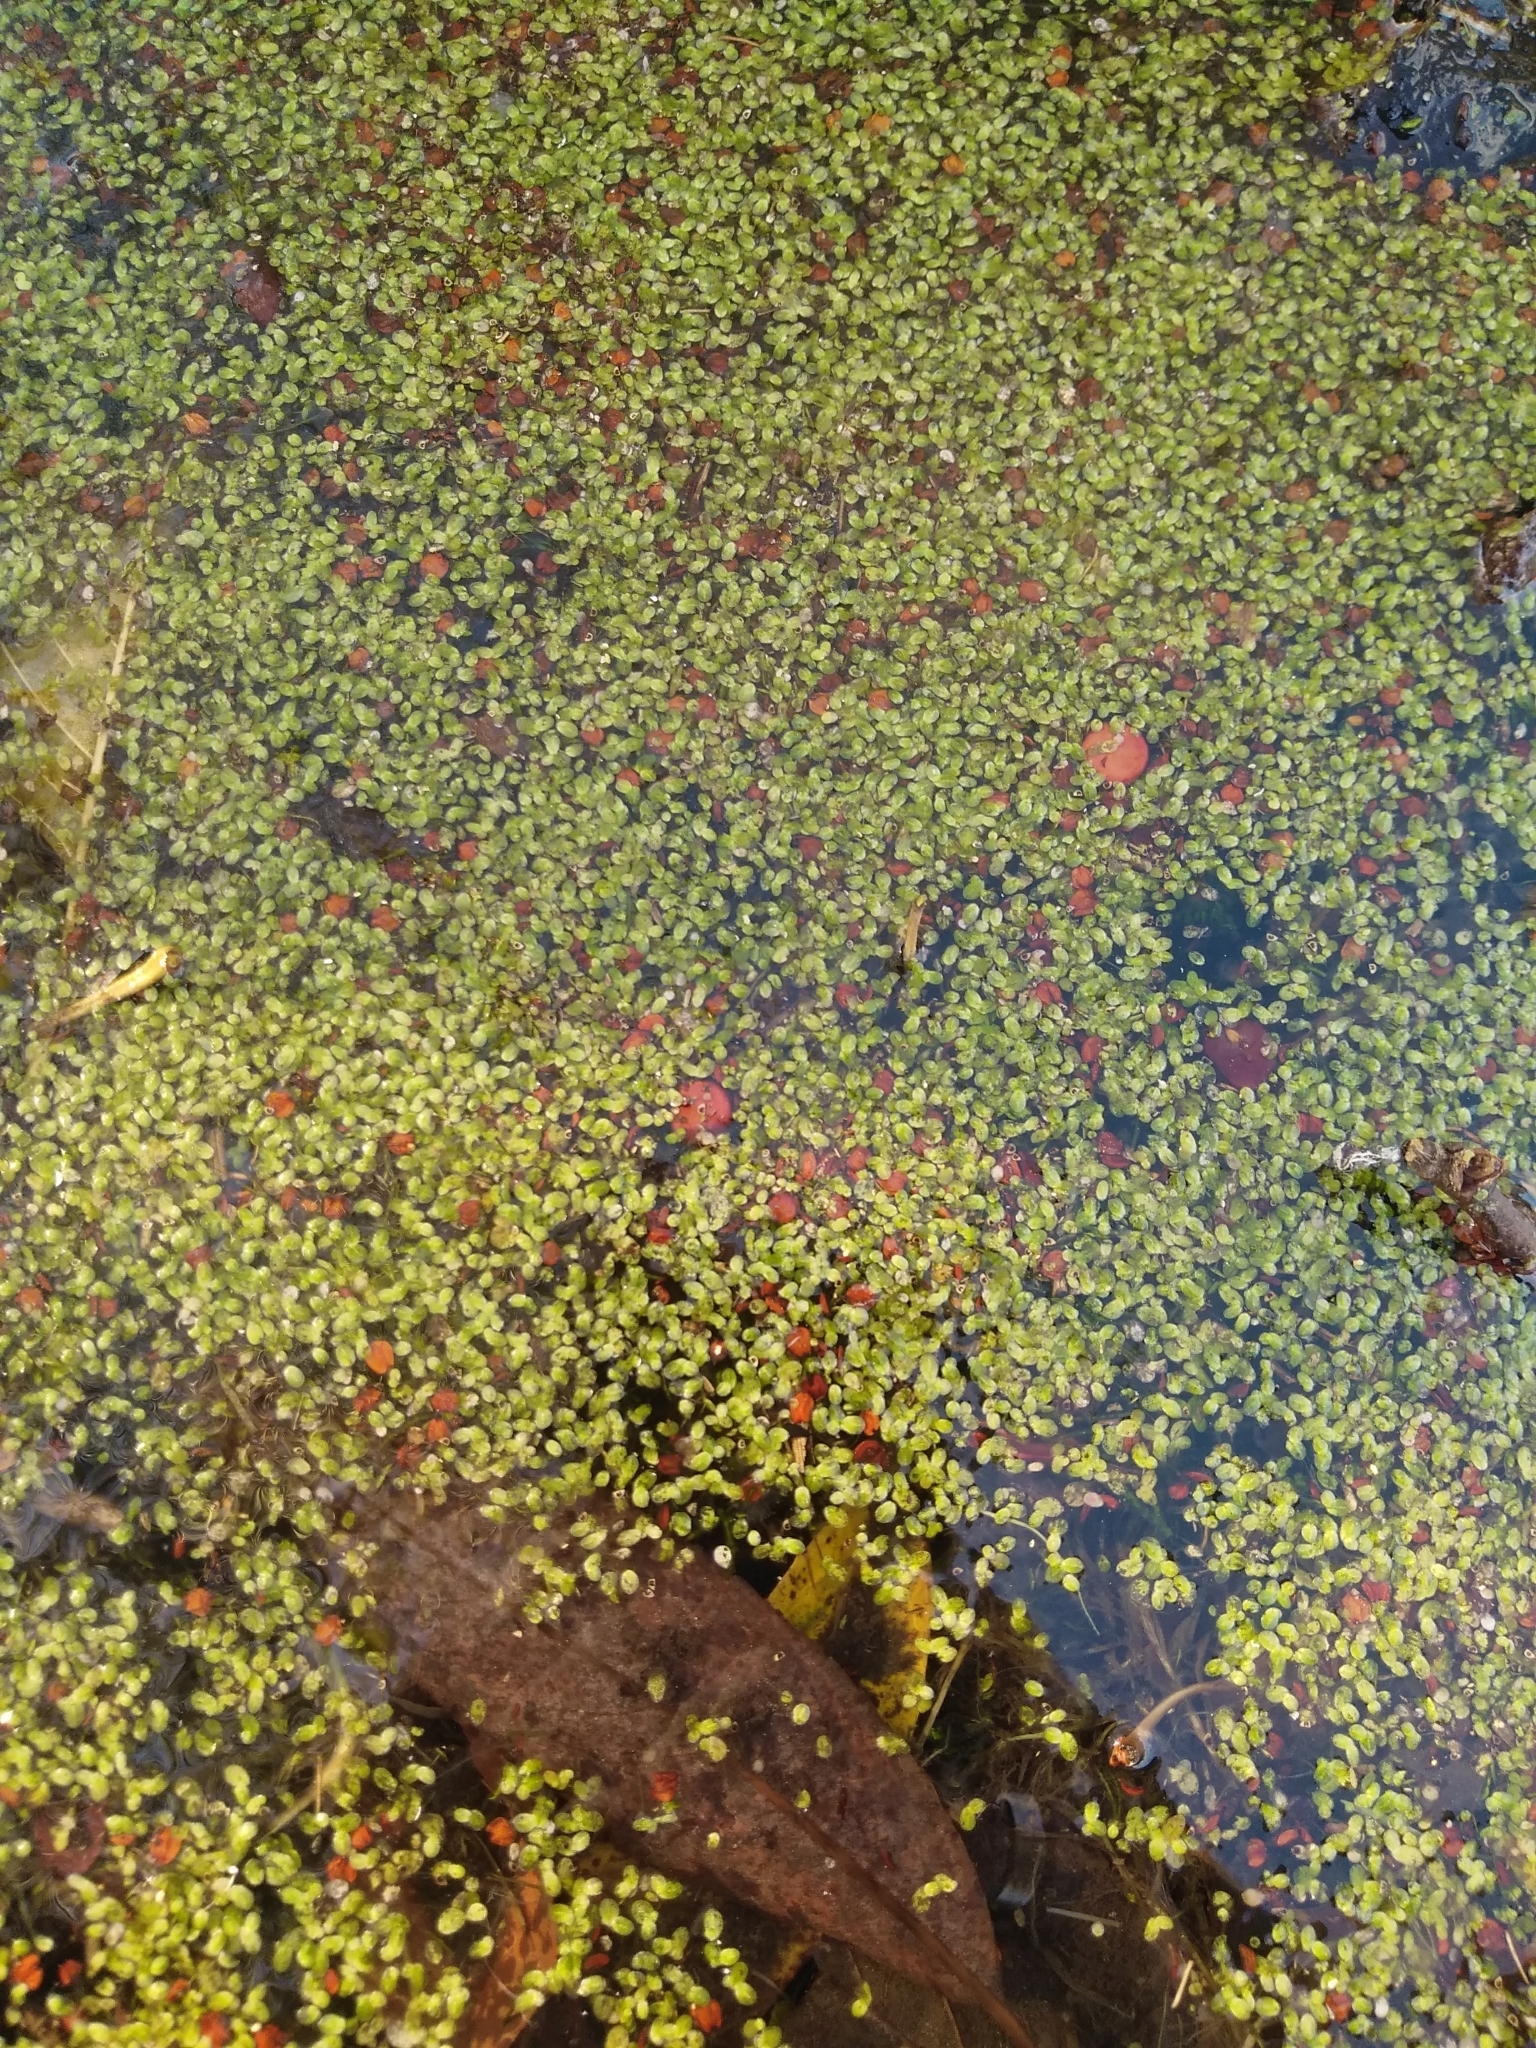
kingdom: Plantae
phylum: Tracheophyta
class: Liliopsida
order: Alismatales
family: Araceae
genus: Lemna
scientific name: Lemna minor
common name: Common duckweed
